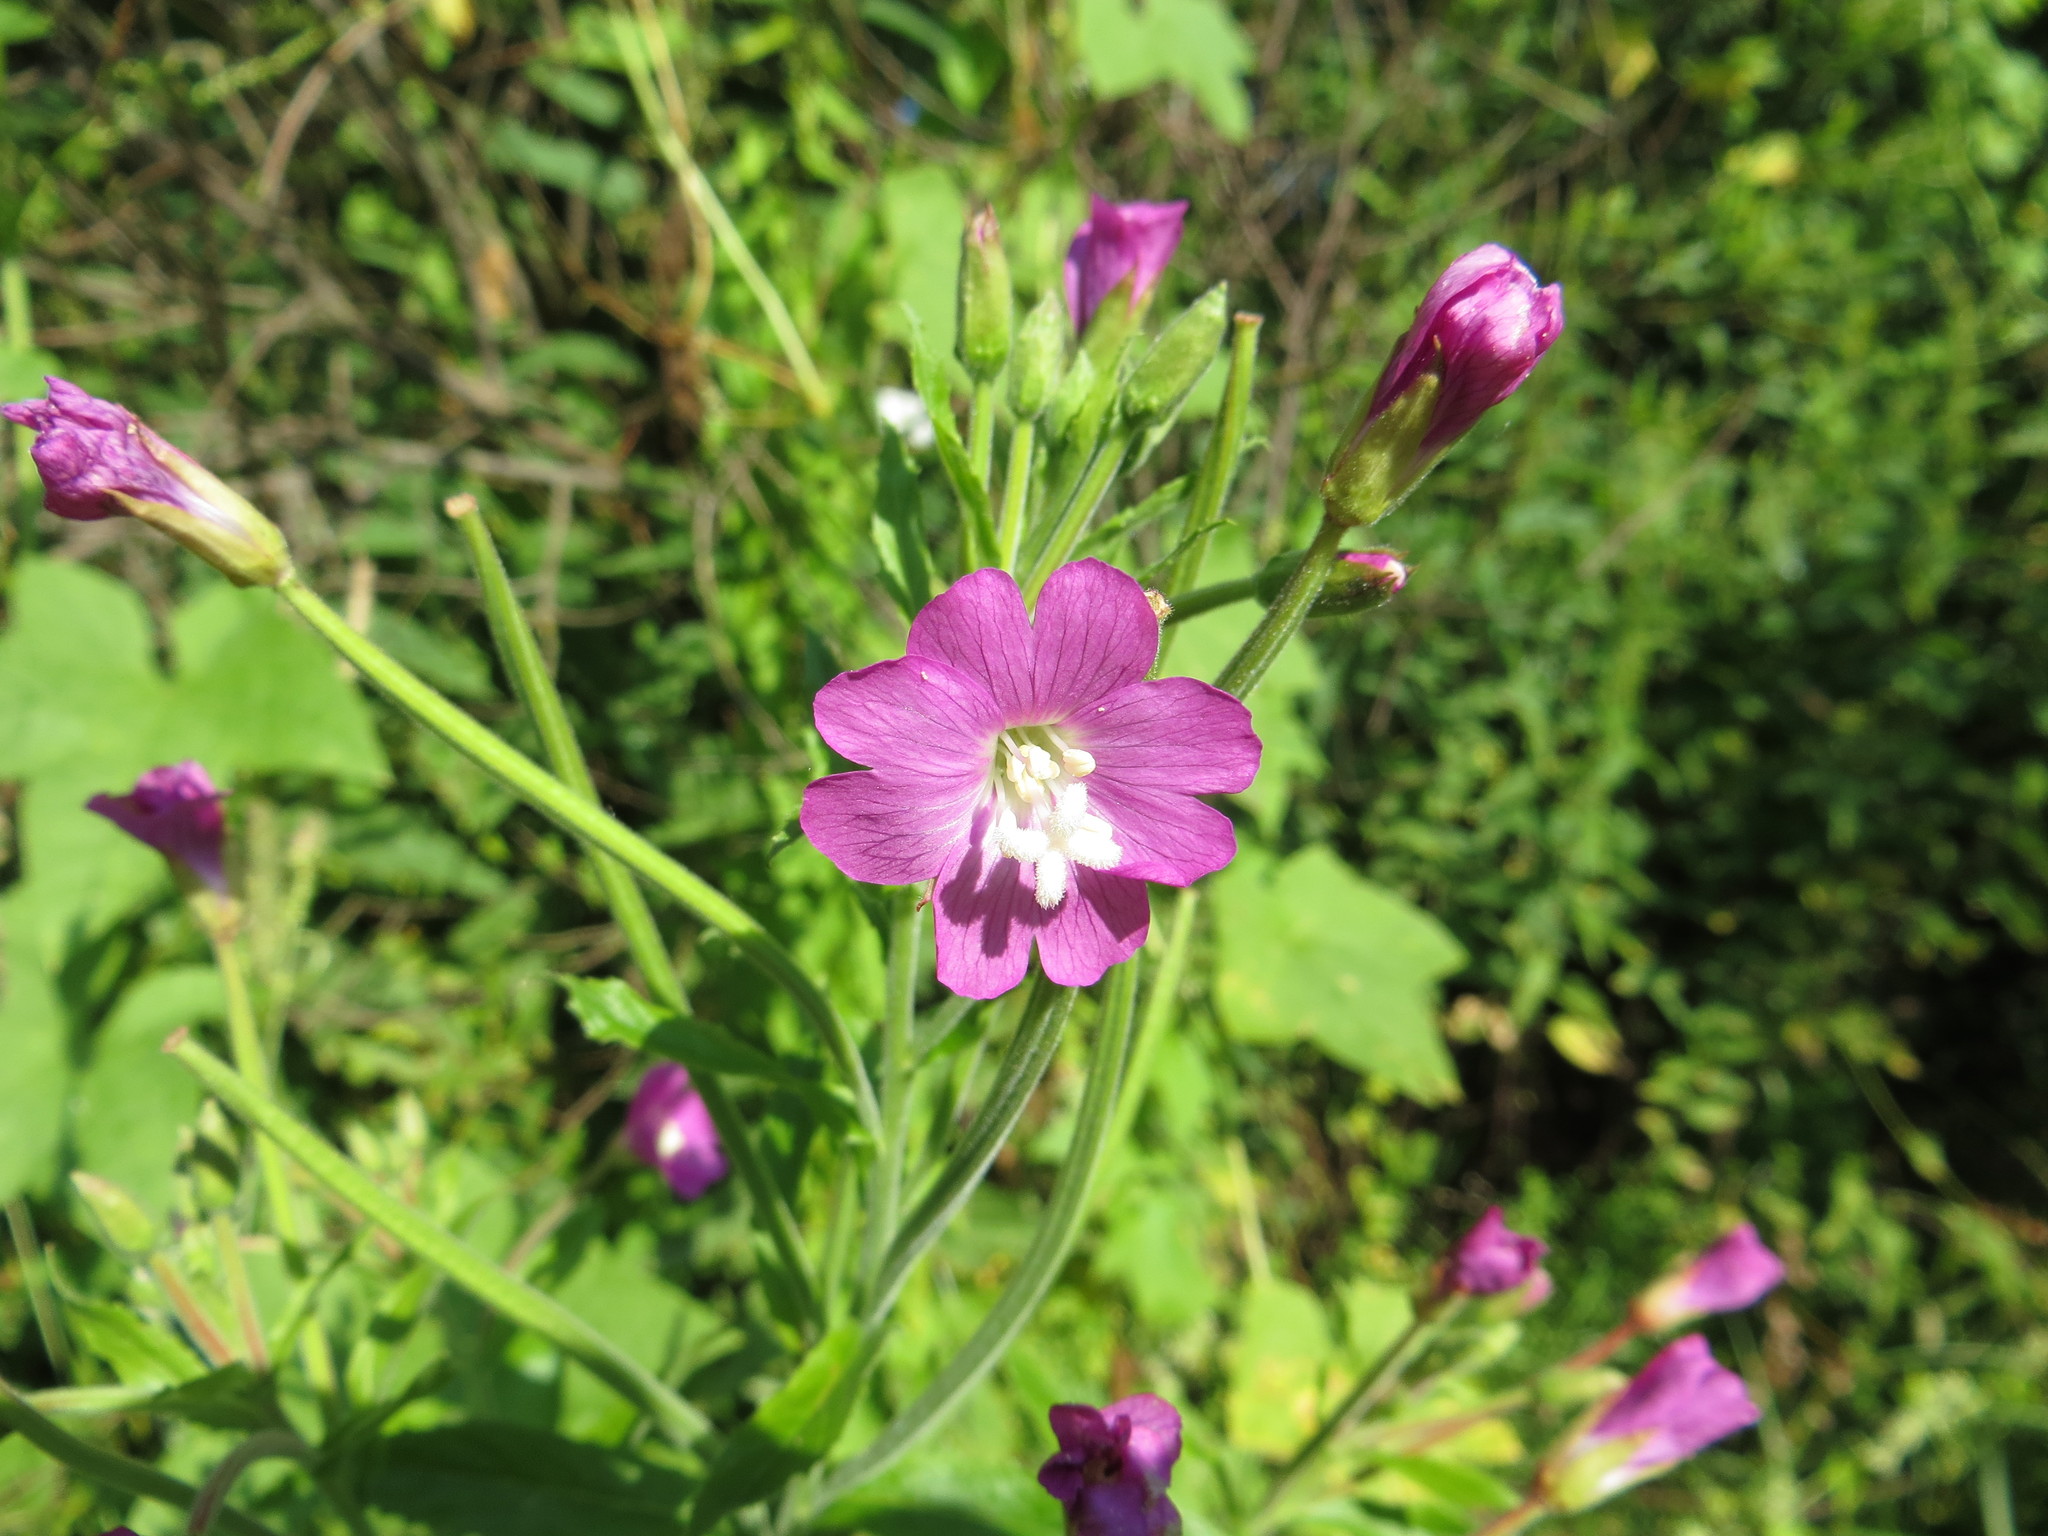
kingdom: Plantae
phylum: Tracheophyta
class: Magnoliopsida
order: Myrtales
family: Onagraceae
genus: Epilobium
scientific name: Epilobium hirsutum
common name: Great willowherb
